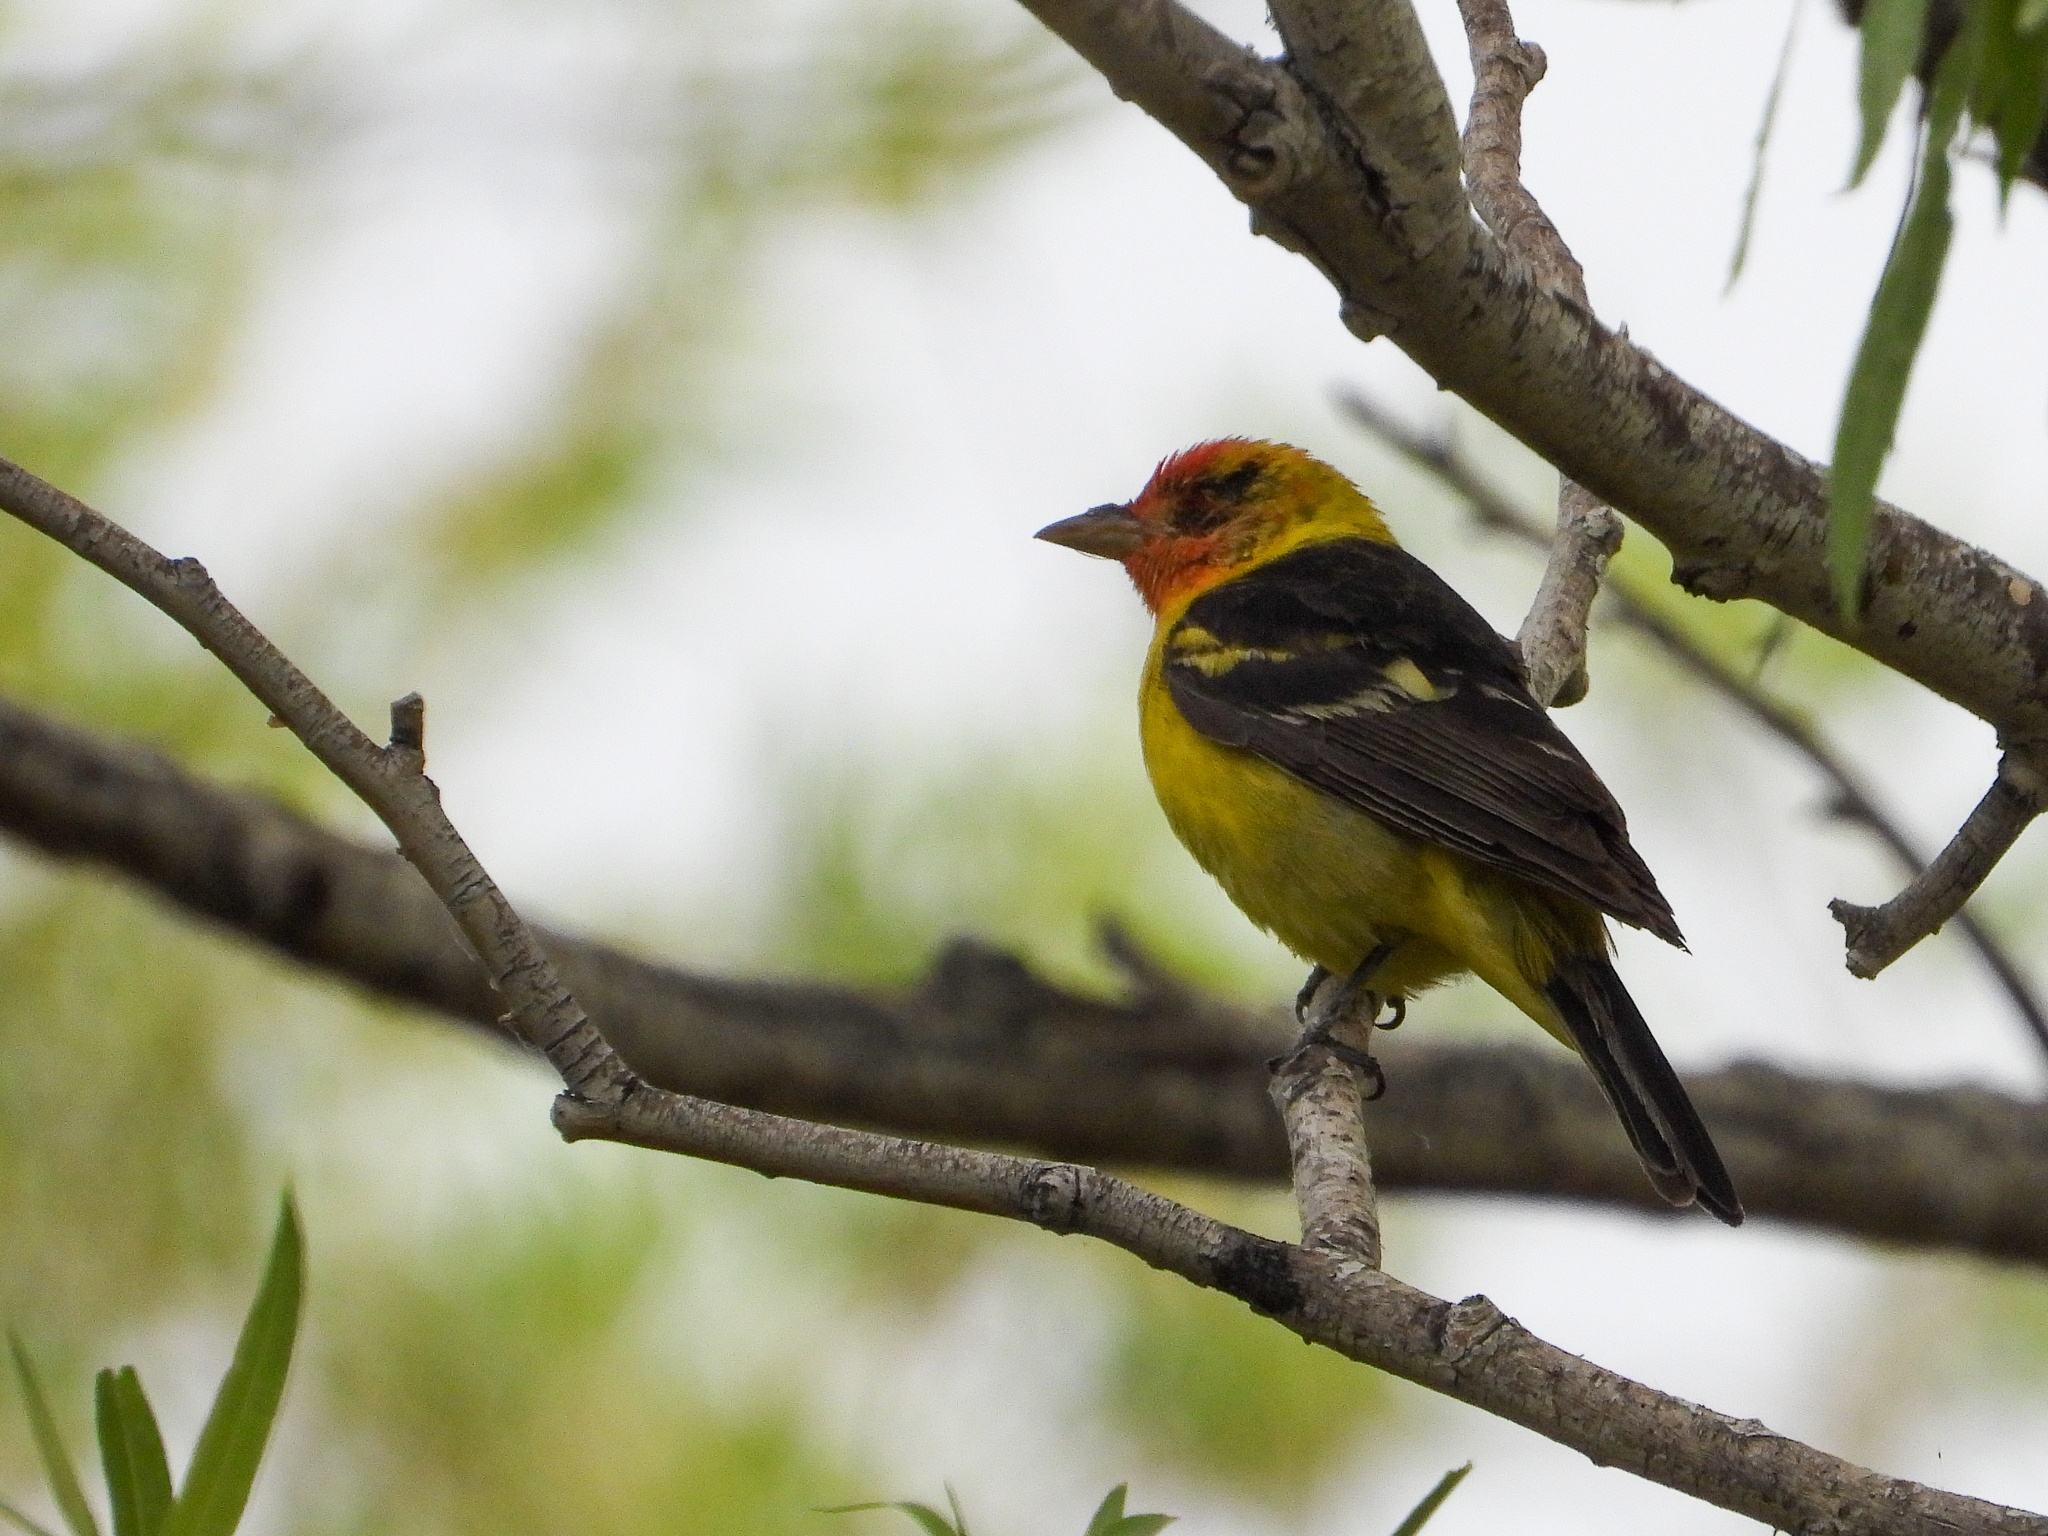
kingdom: Animalia
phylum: Chordata
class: Aves
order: Passeriformes
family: Cardinalidae
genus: Piranga
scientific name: Piranga ludoviciana
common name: Western tanager
